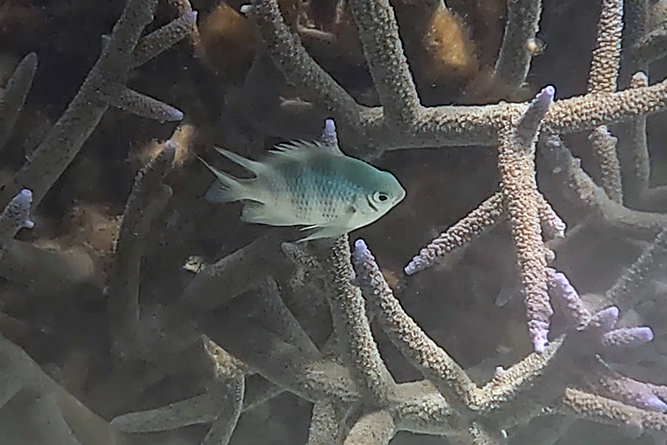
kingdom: Animalia
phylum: Chordata
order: Perciformes
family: Pomacentridae
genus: Amblyglyphidodon
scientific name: Amblyglyphidodon curacao
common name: Staghorn damsel
